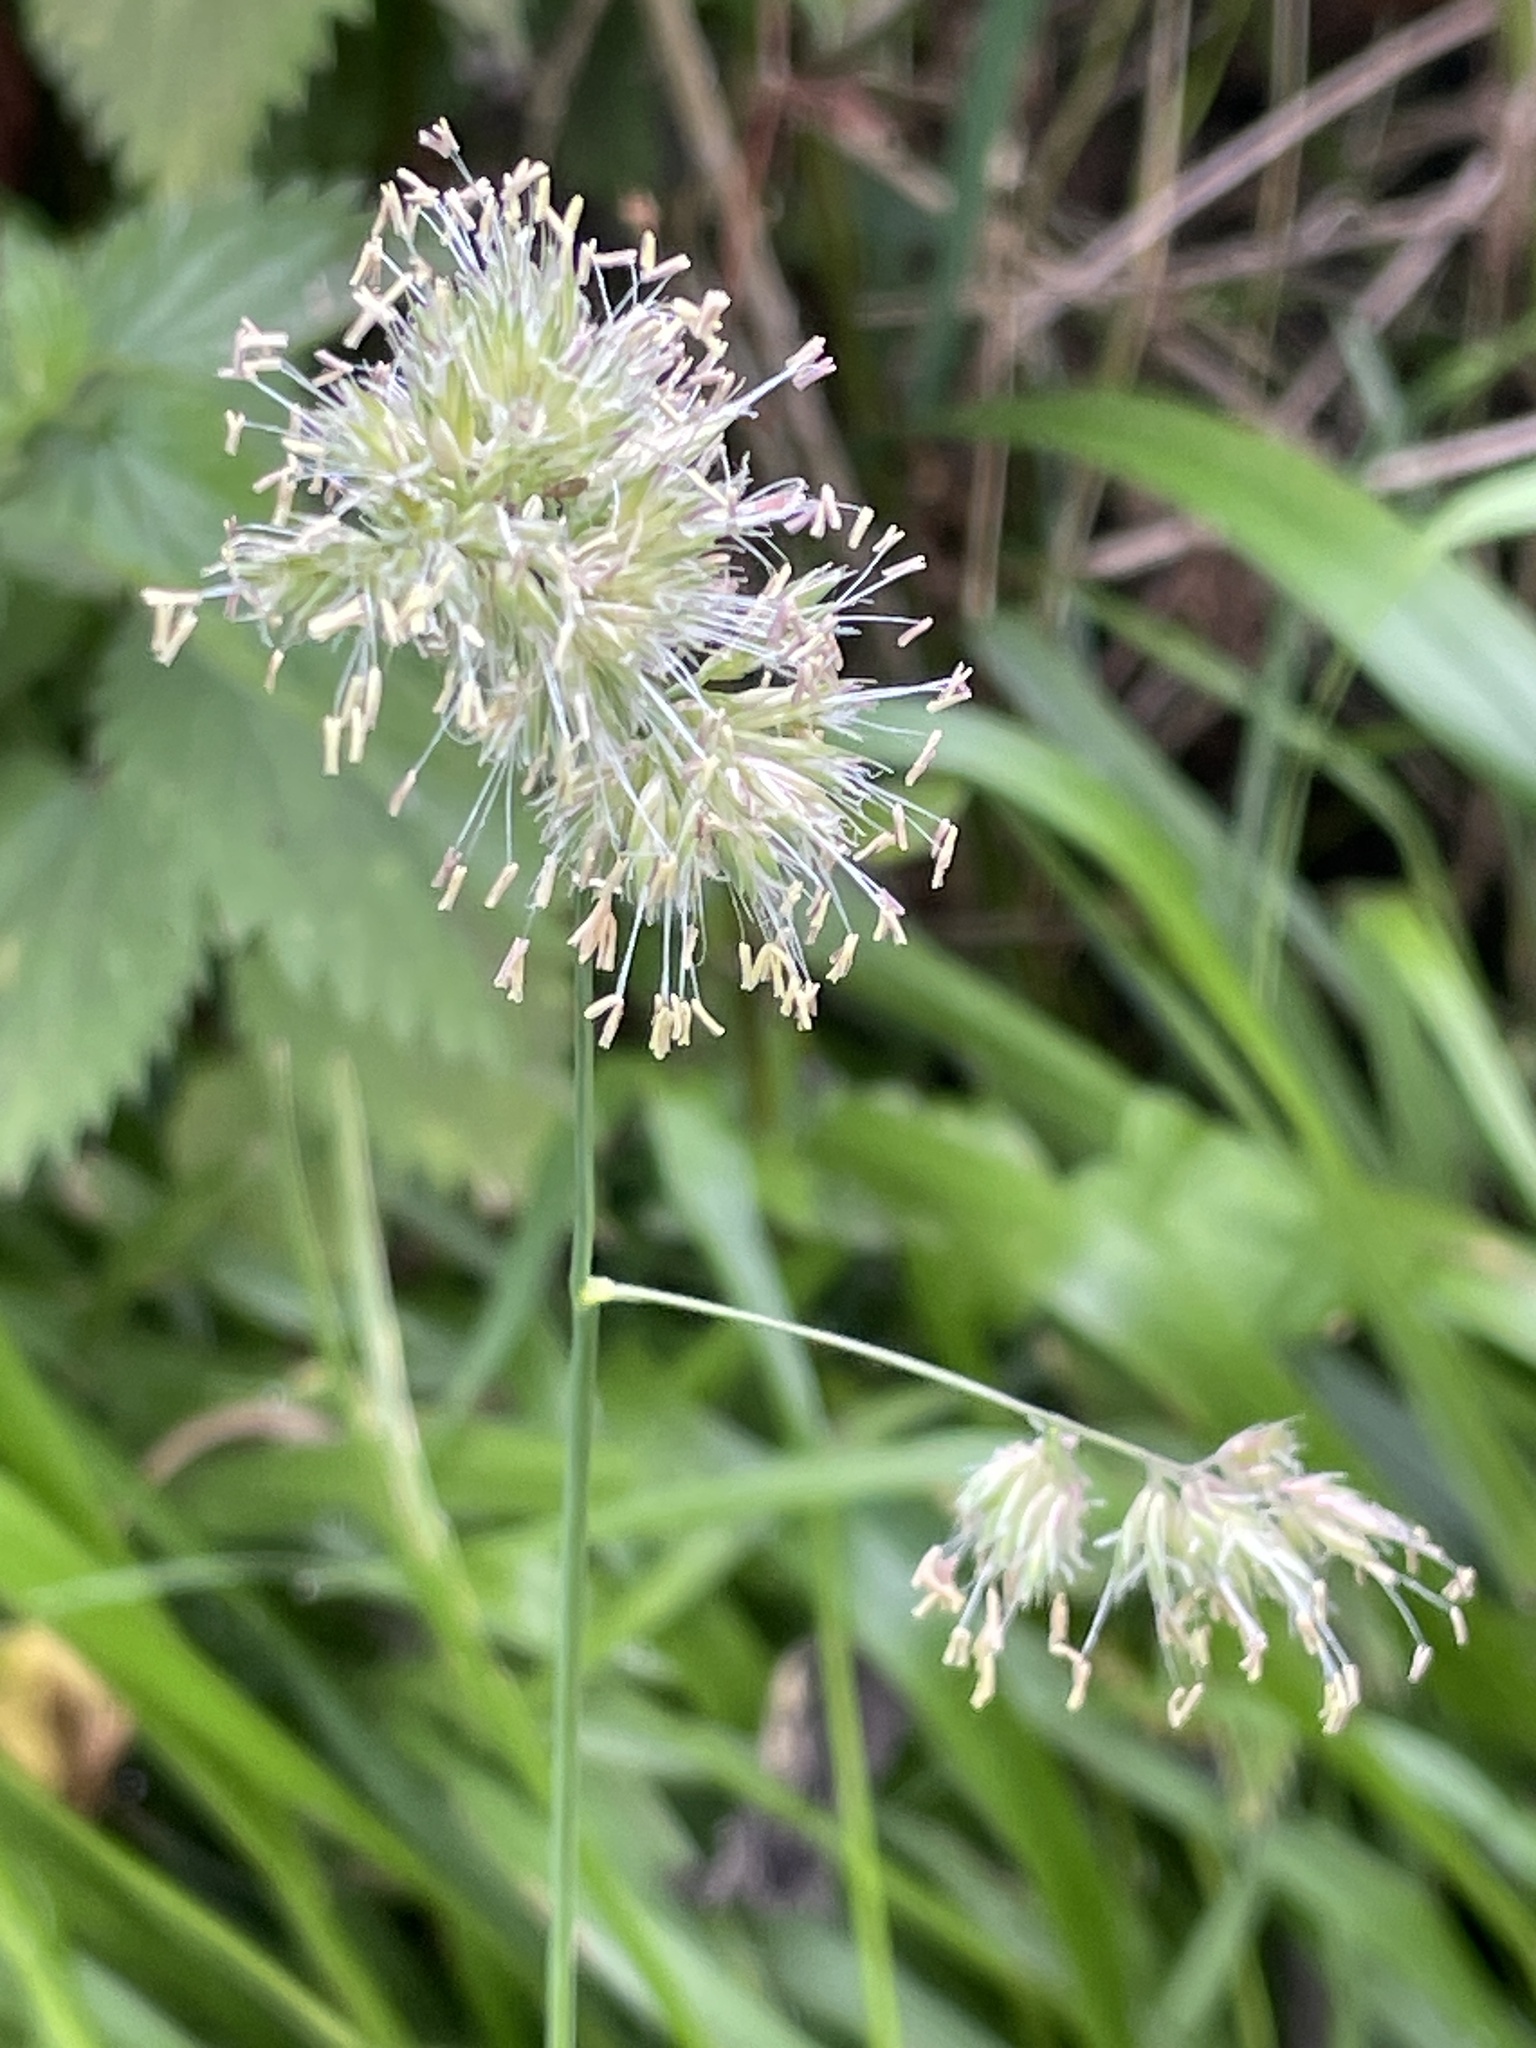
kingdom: Plantae
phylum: Tracheophyta
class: Liliopsida
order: Poales
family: Poaceae
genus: Dactylis
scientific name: Dactylis glomerata
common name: Orchardgrass
